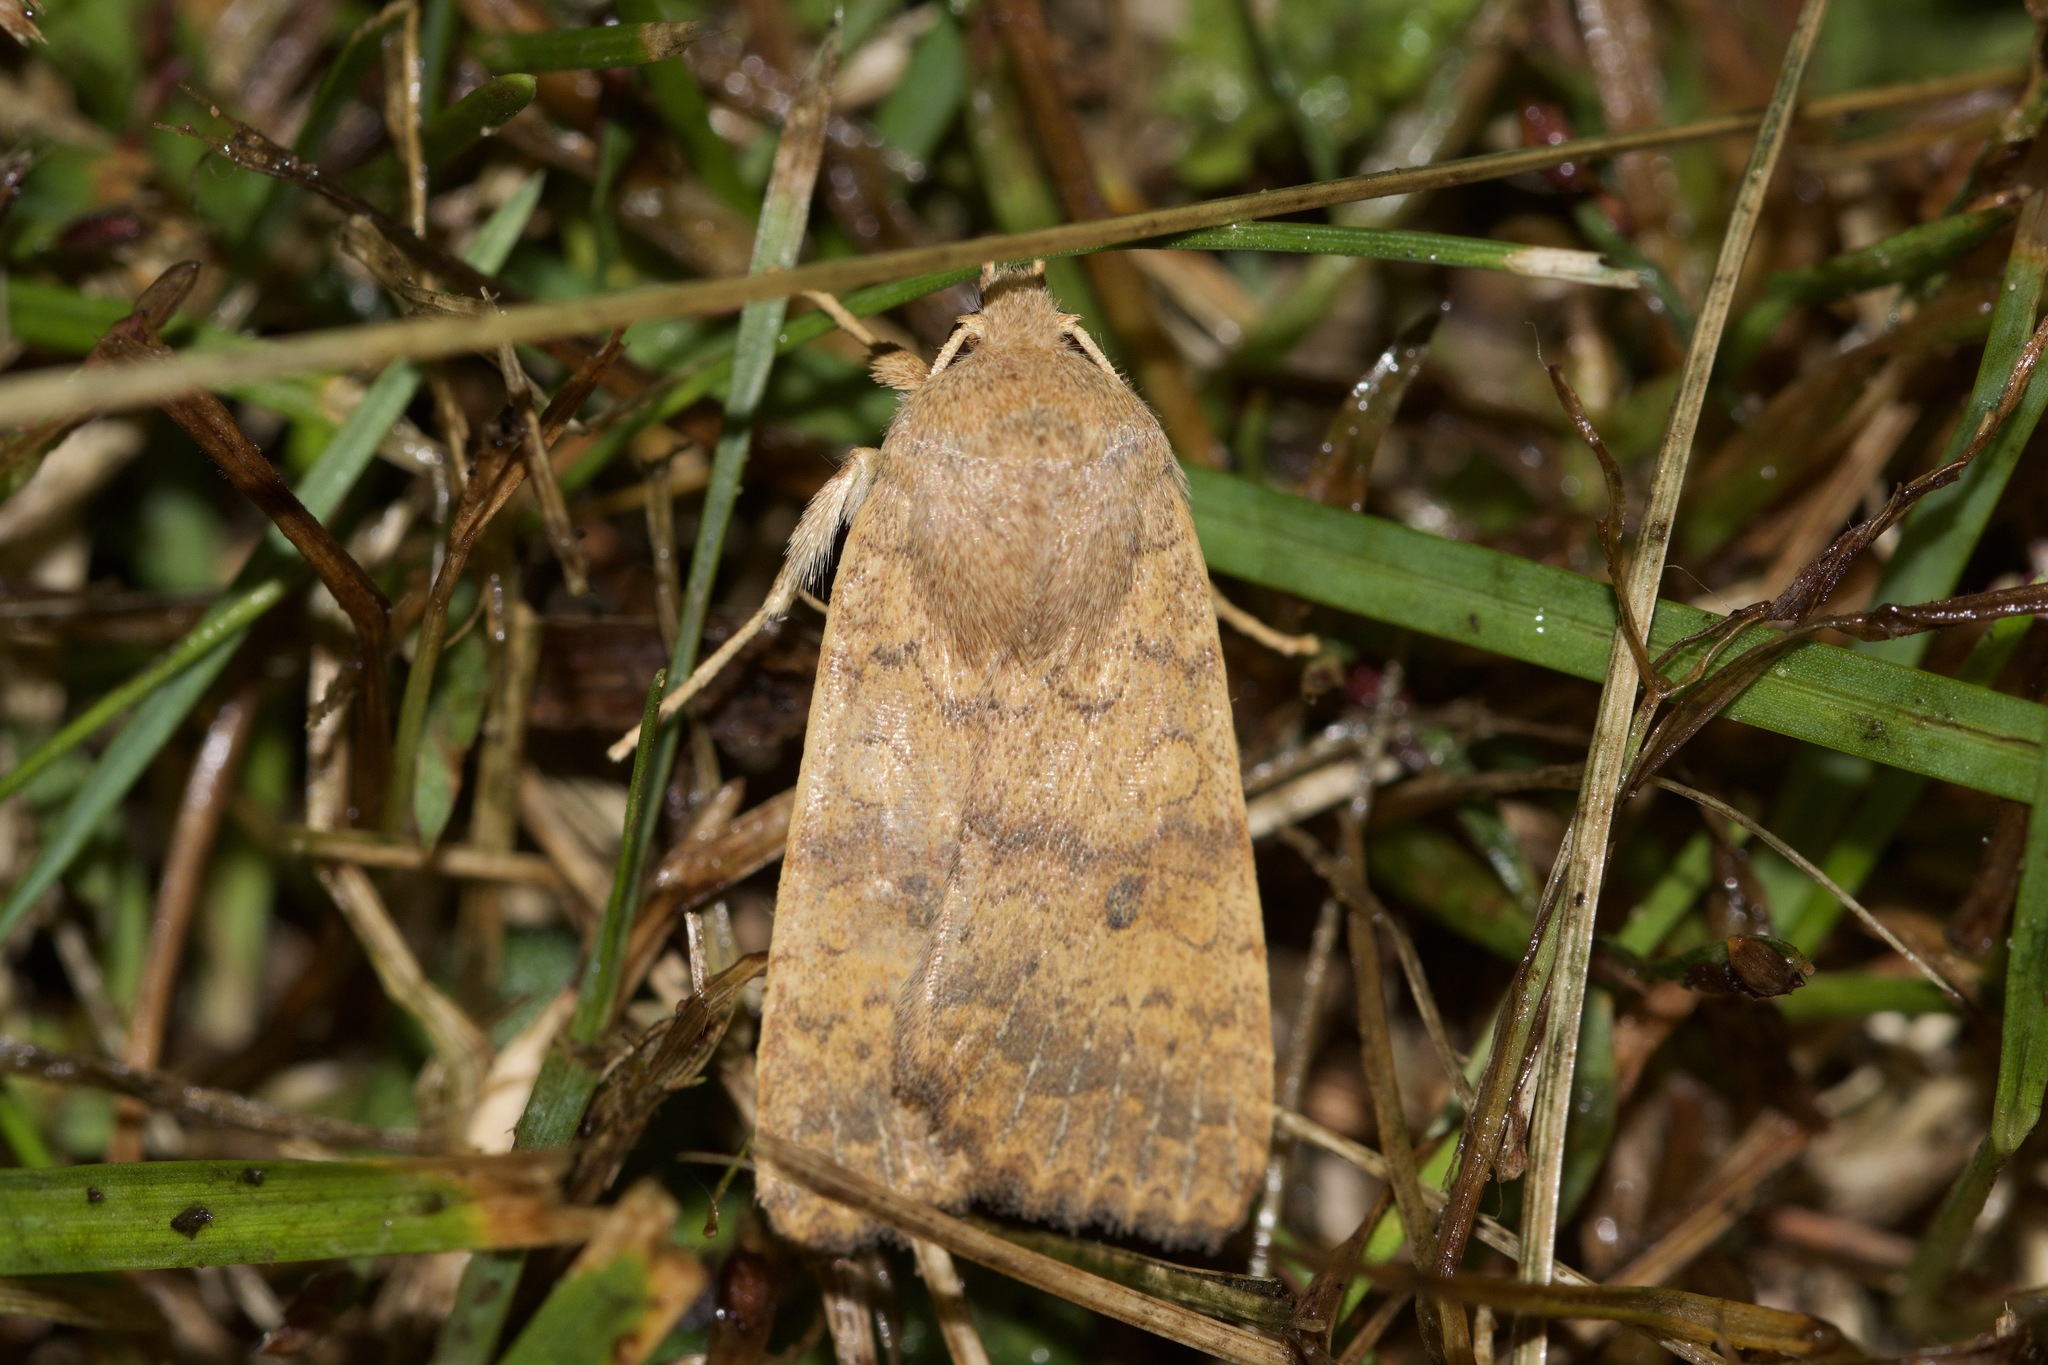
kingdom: Animalia
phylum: Arthropoda
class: Insecta
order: Lepidoptera
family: Noctuidae
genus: Agrochola
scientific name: Agrochola bicolorago
